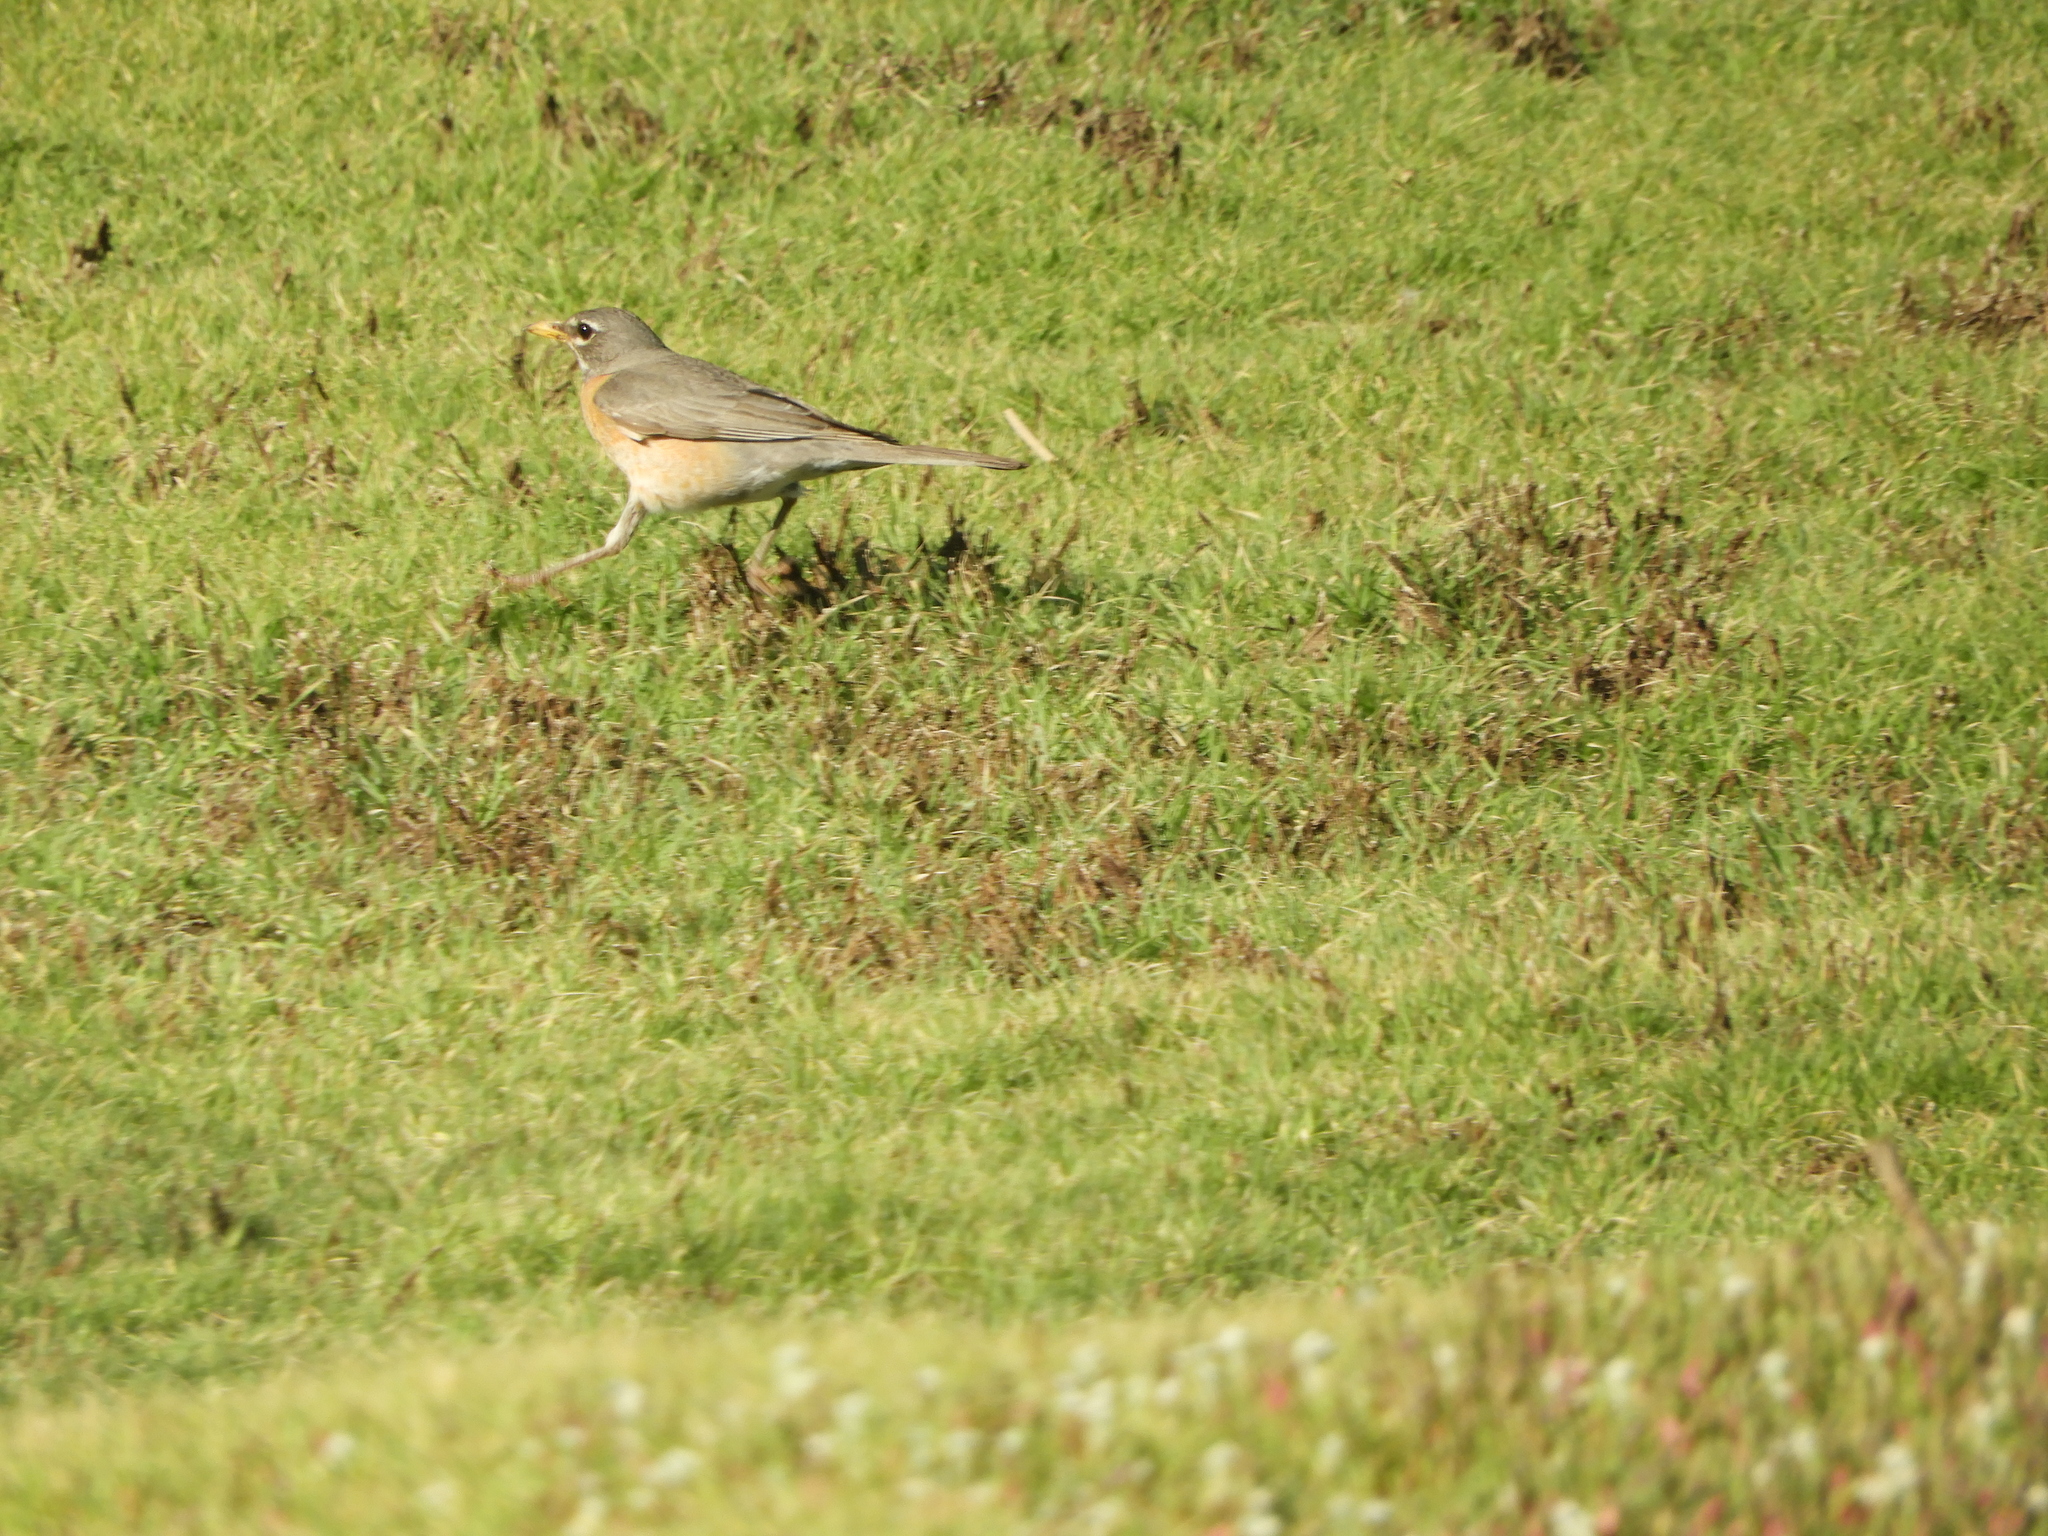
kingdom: Animalia
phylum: Chordata
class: Aves
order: Passeriformes
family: Turdidae
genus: Turdus
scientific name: Turdus migratorius
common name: American robin
